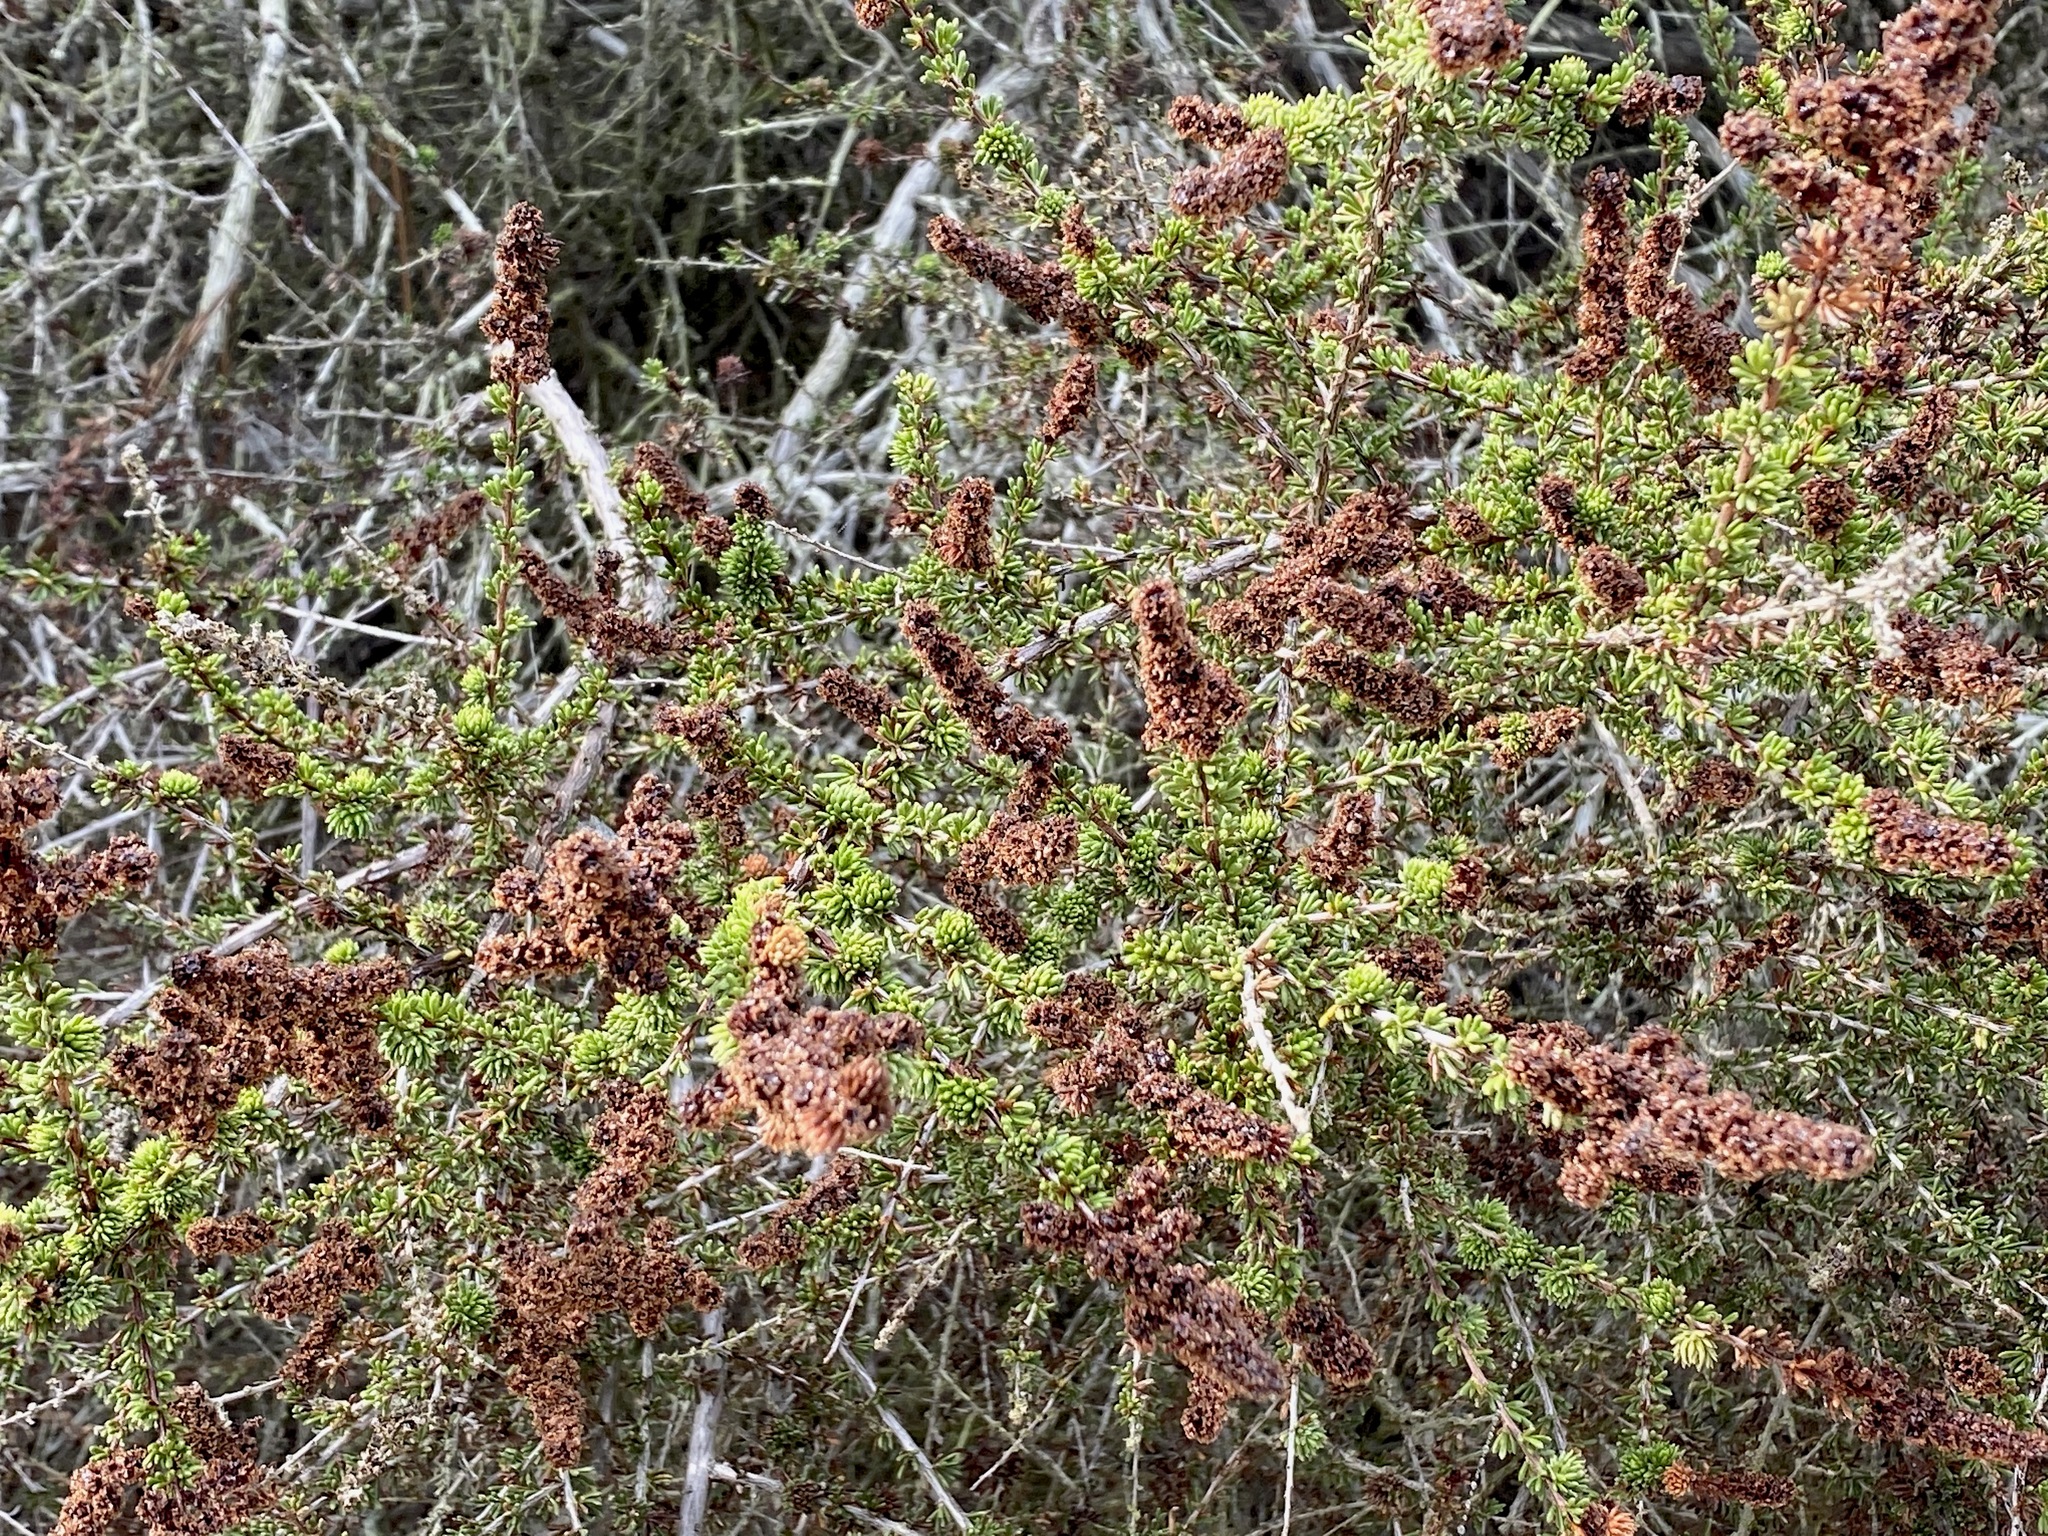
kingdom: Plantae
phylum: Tracheophyta
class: Magnoliopsida
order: Rosales
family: Rosaceae
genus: Adenostoma
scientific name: Adenostoma fasciculatum
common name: Chamise
